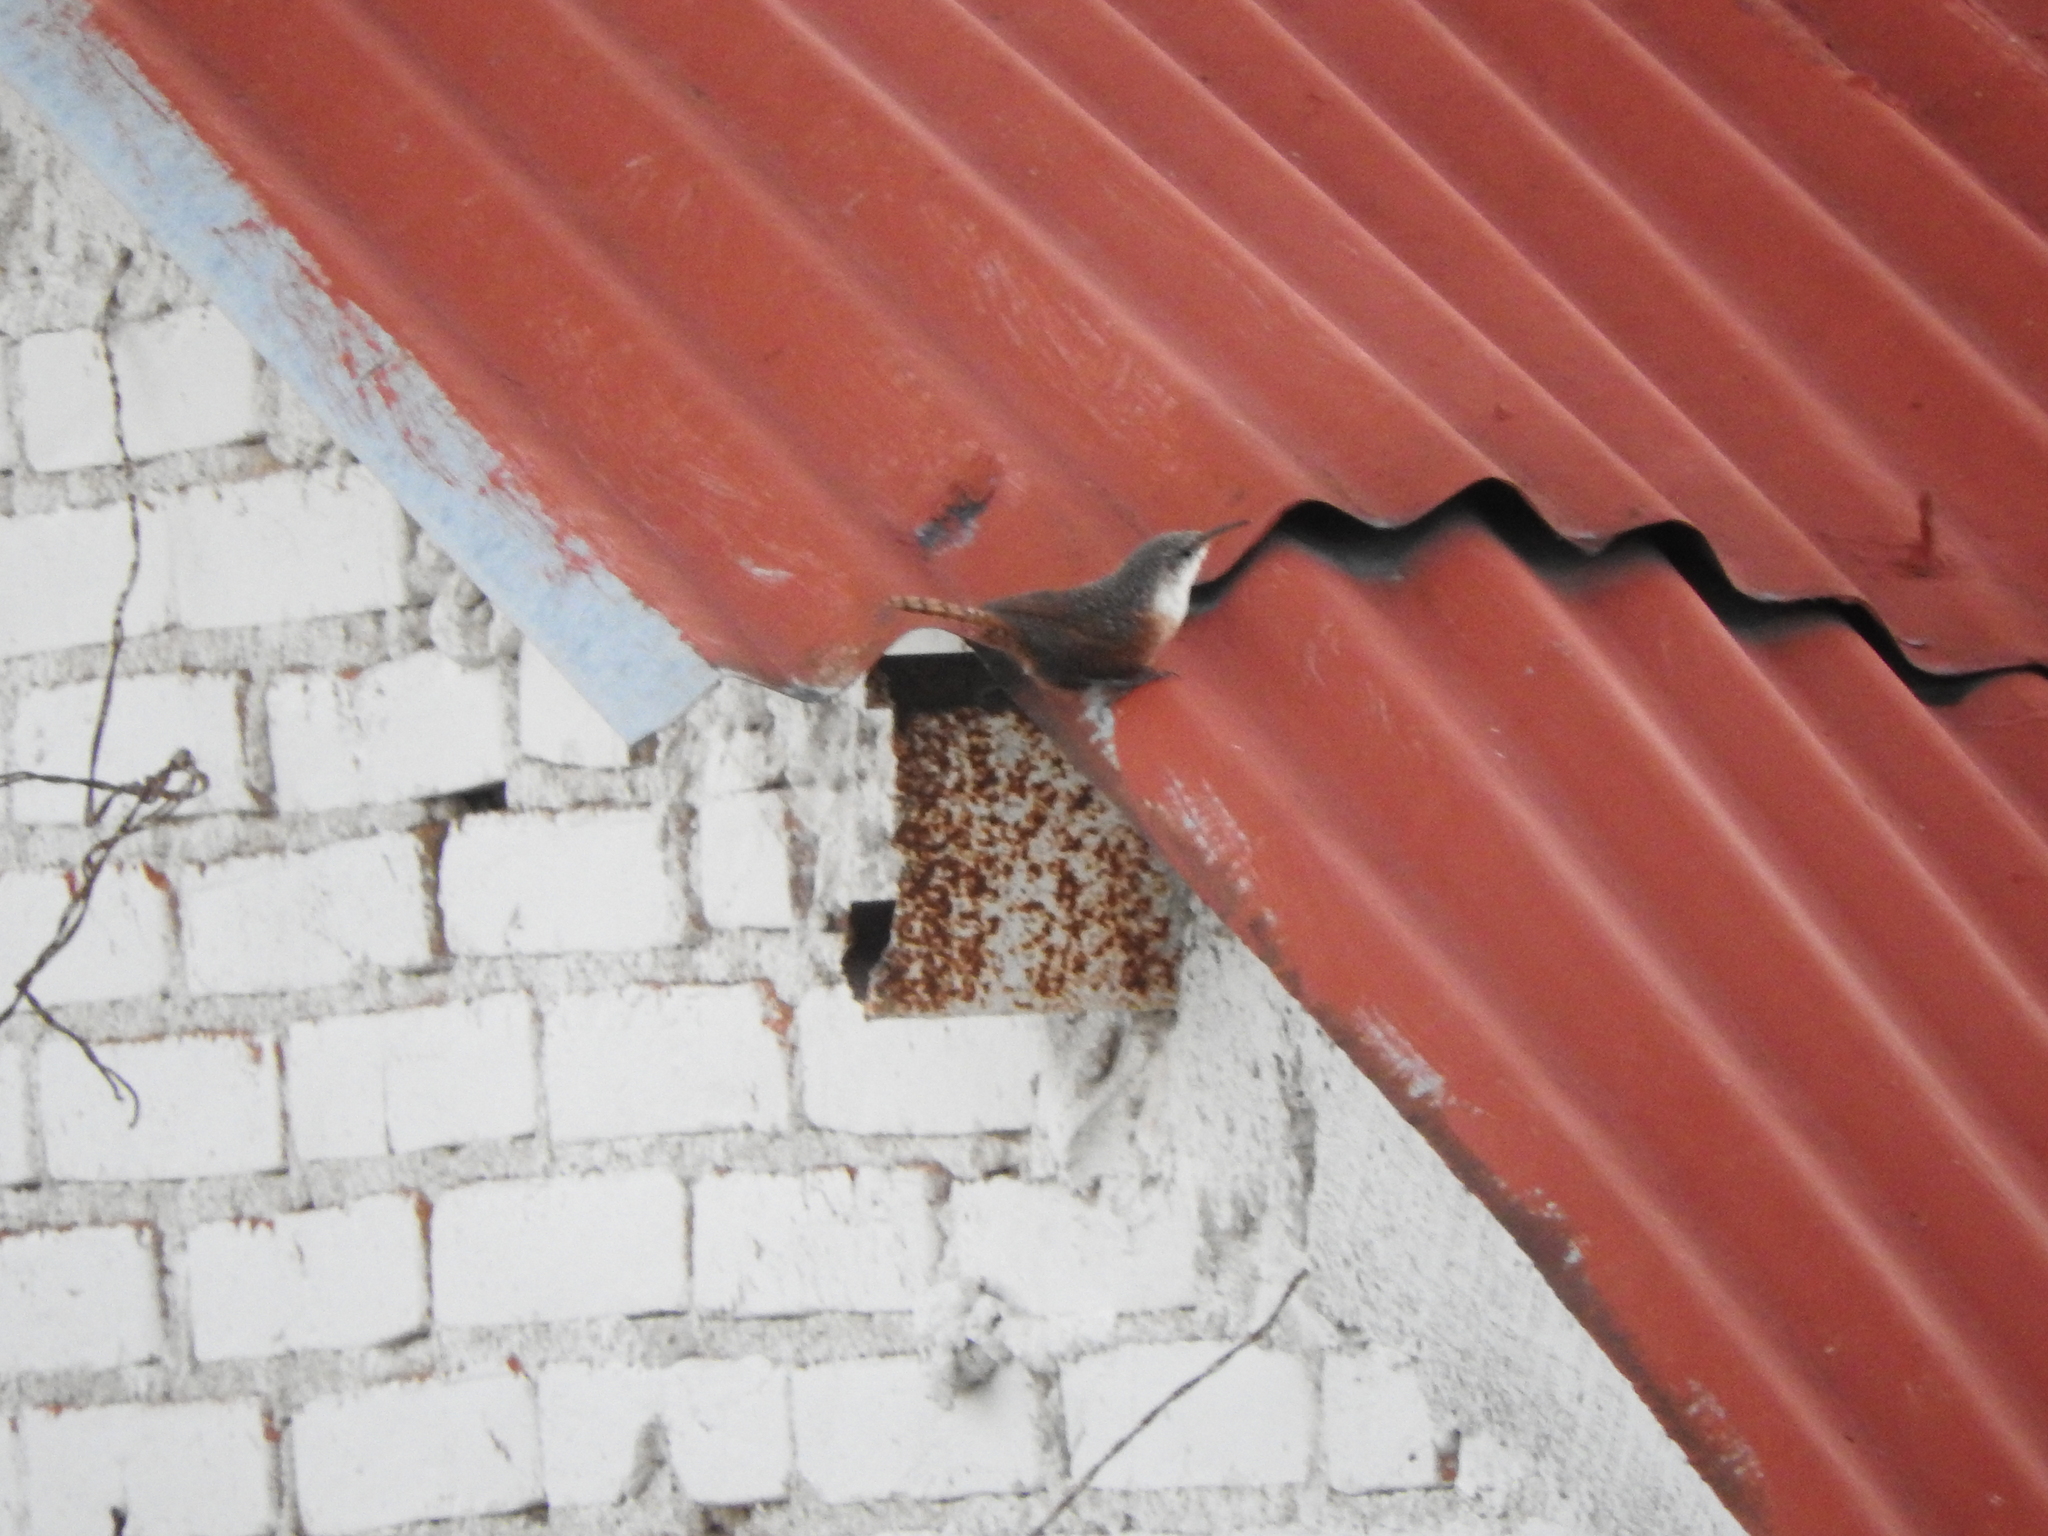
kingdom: Animalia
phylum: Chordata
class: Aves
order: Passeriformes
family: Troglodytidae
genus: Catherpes
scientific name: Catherpes mexicanus
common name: Canyon wren
